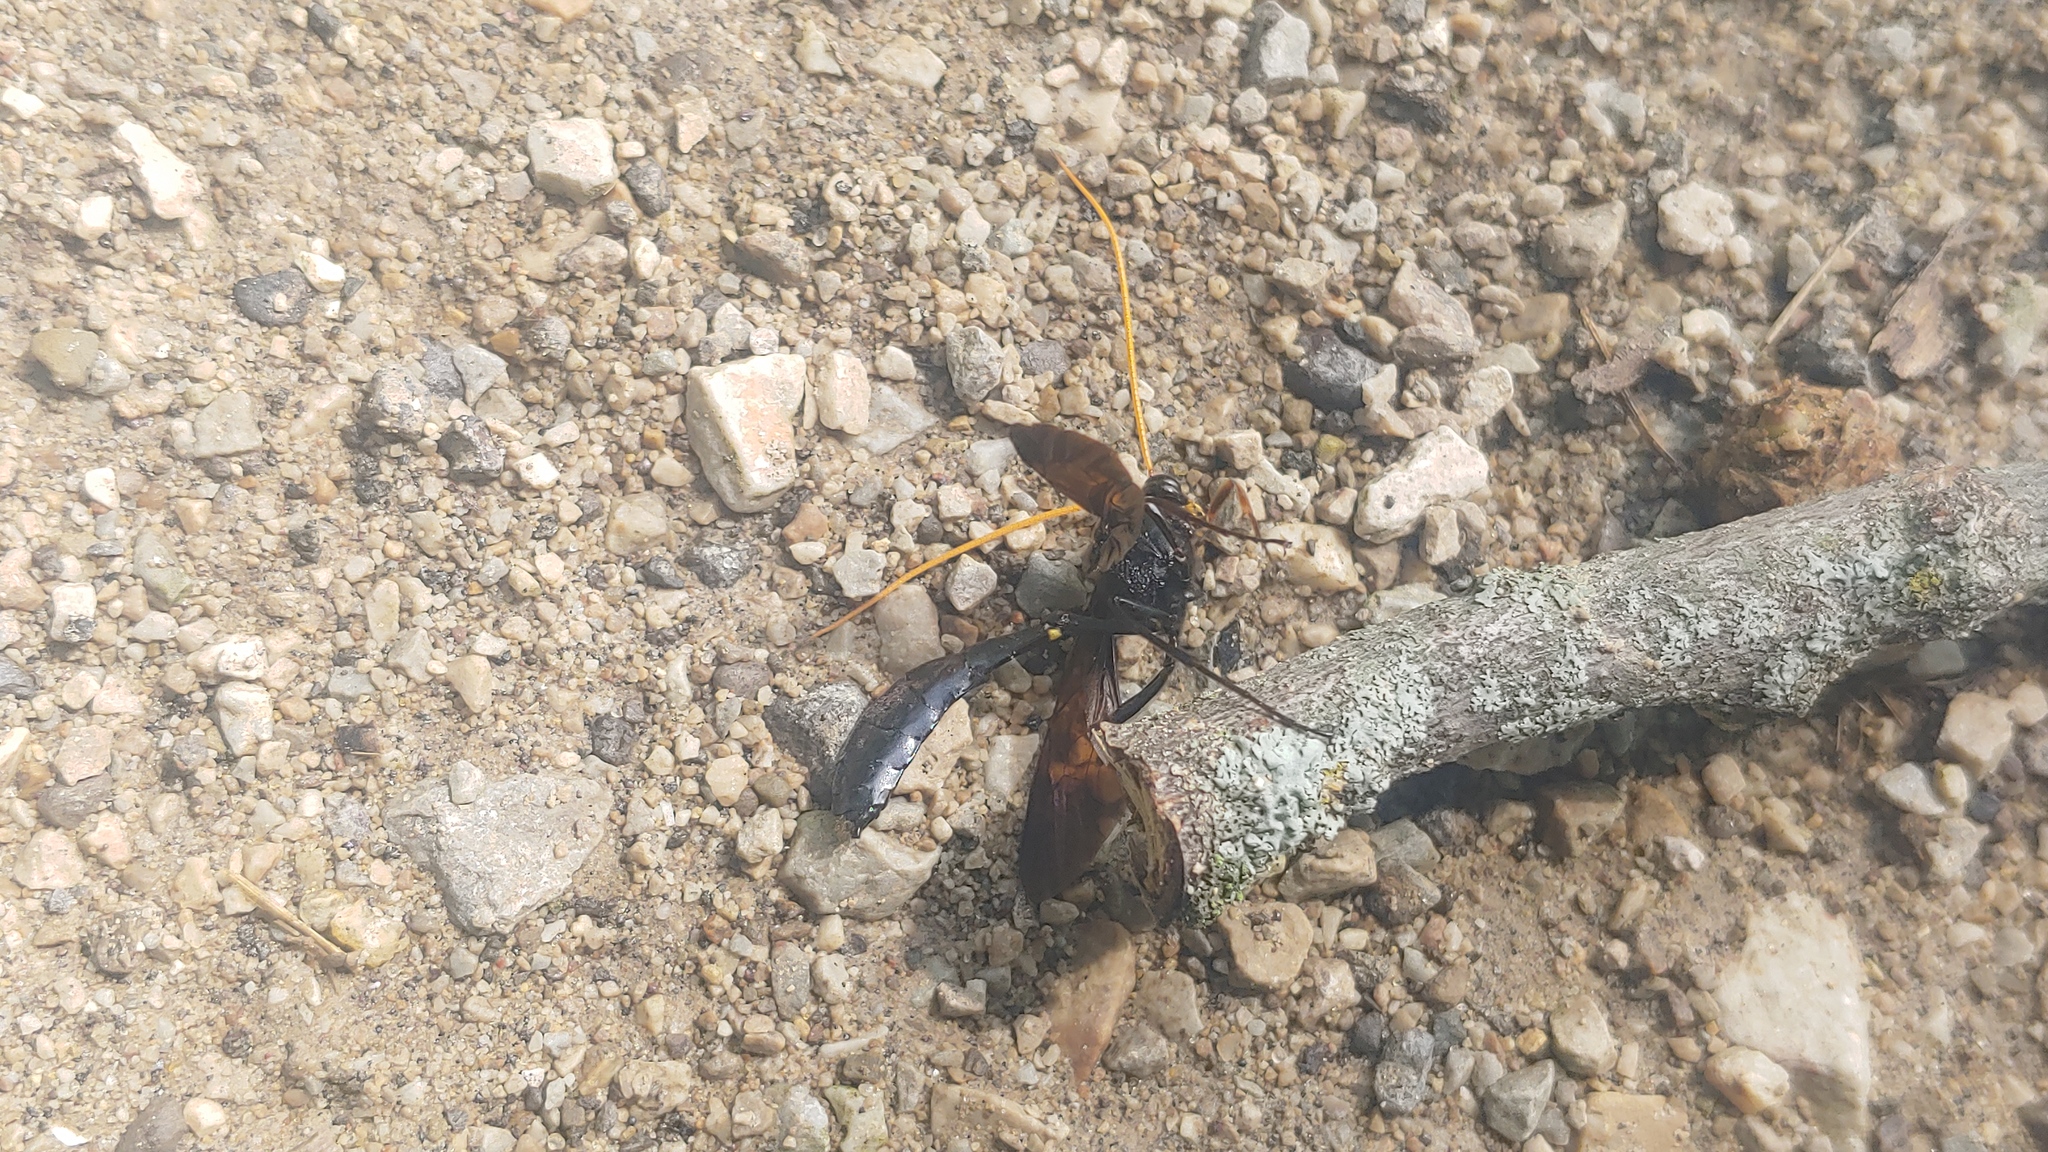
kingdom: Animalia
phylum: Arthropoda
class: Insecta
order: Hymenoptera
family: Ichneumonidae
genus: Thyreodon
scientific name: Thyreodon atricolor
